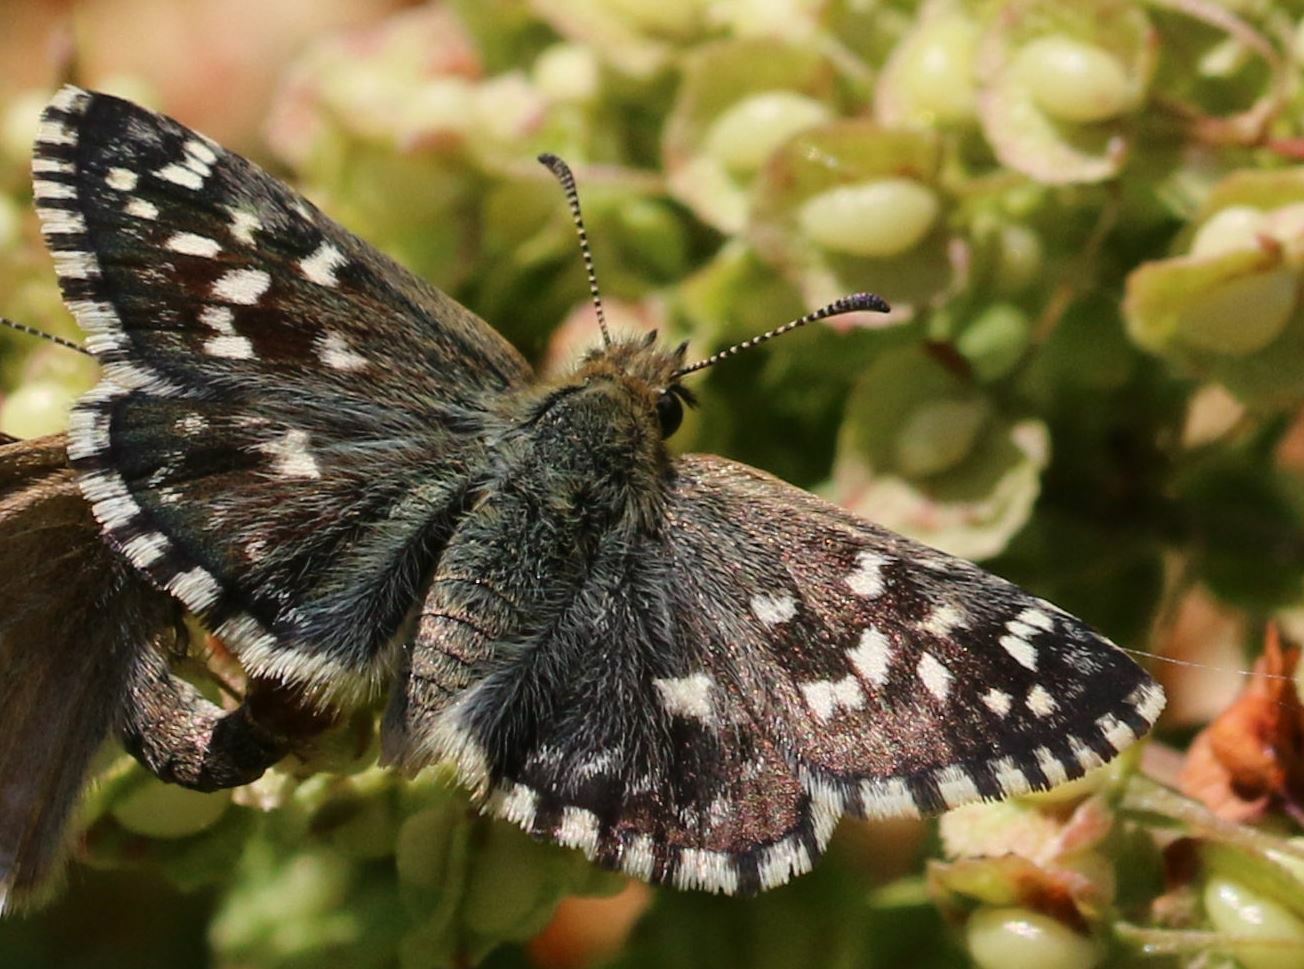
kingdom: Animalia
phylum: Arthropoda
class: Insecta
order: Lepidoptera
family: Hesperiidae
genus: Pyrgus
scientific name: Pyrgus malvoides
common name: Southern grizzled skipper
